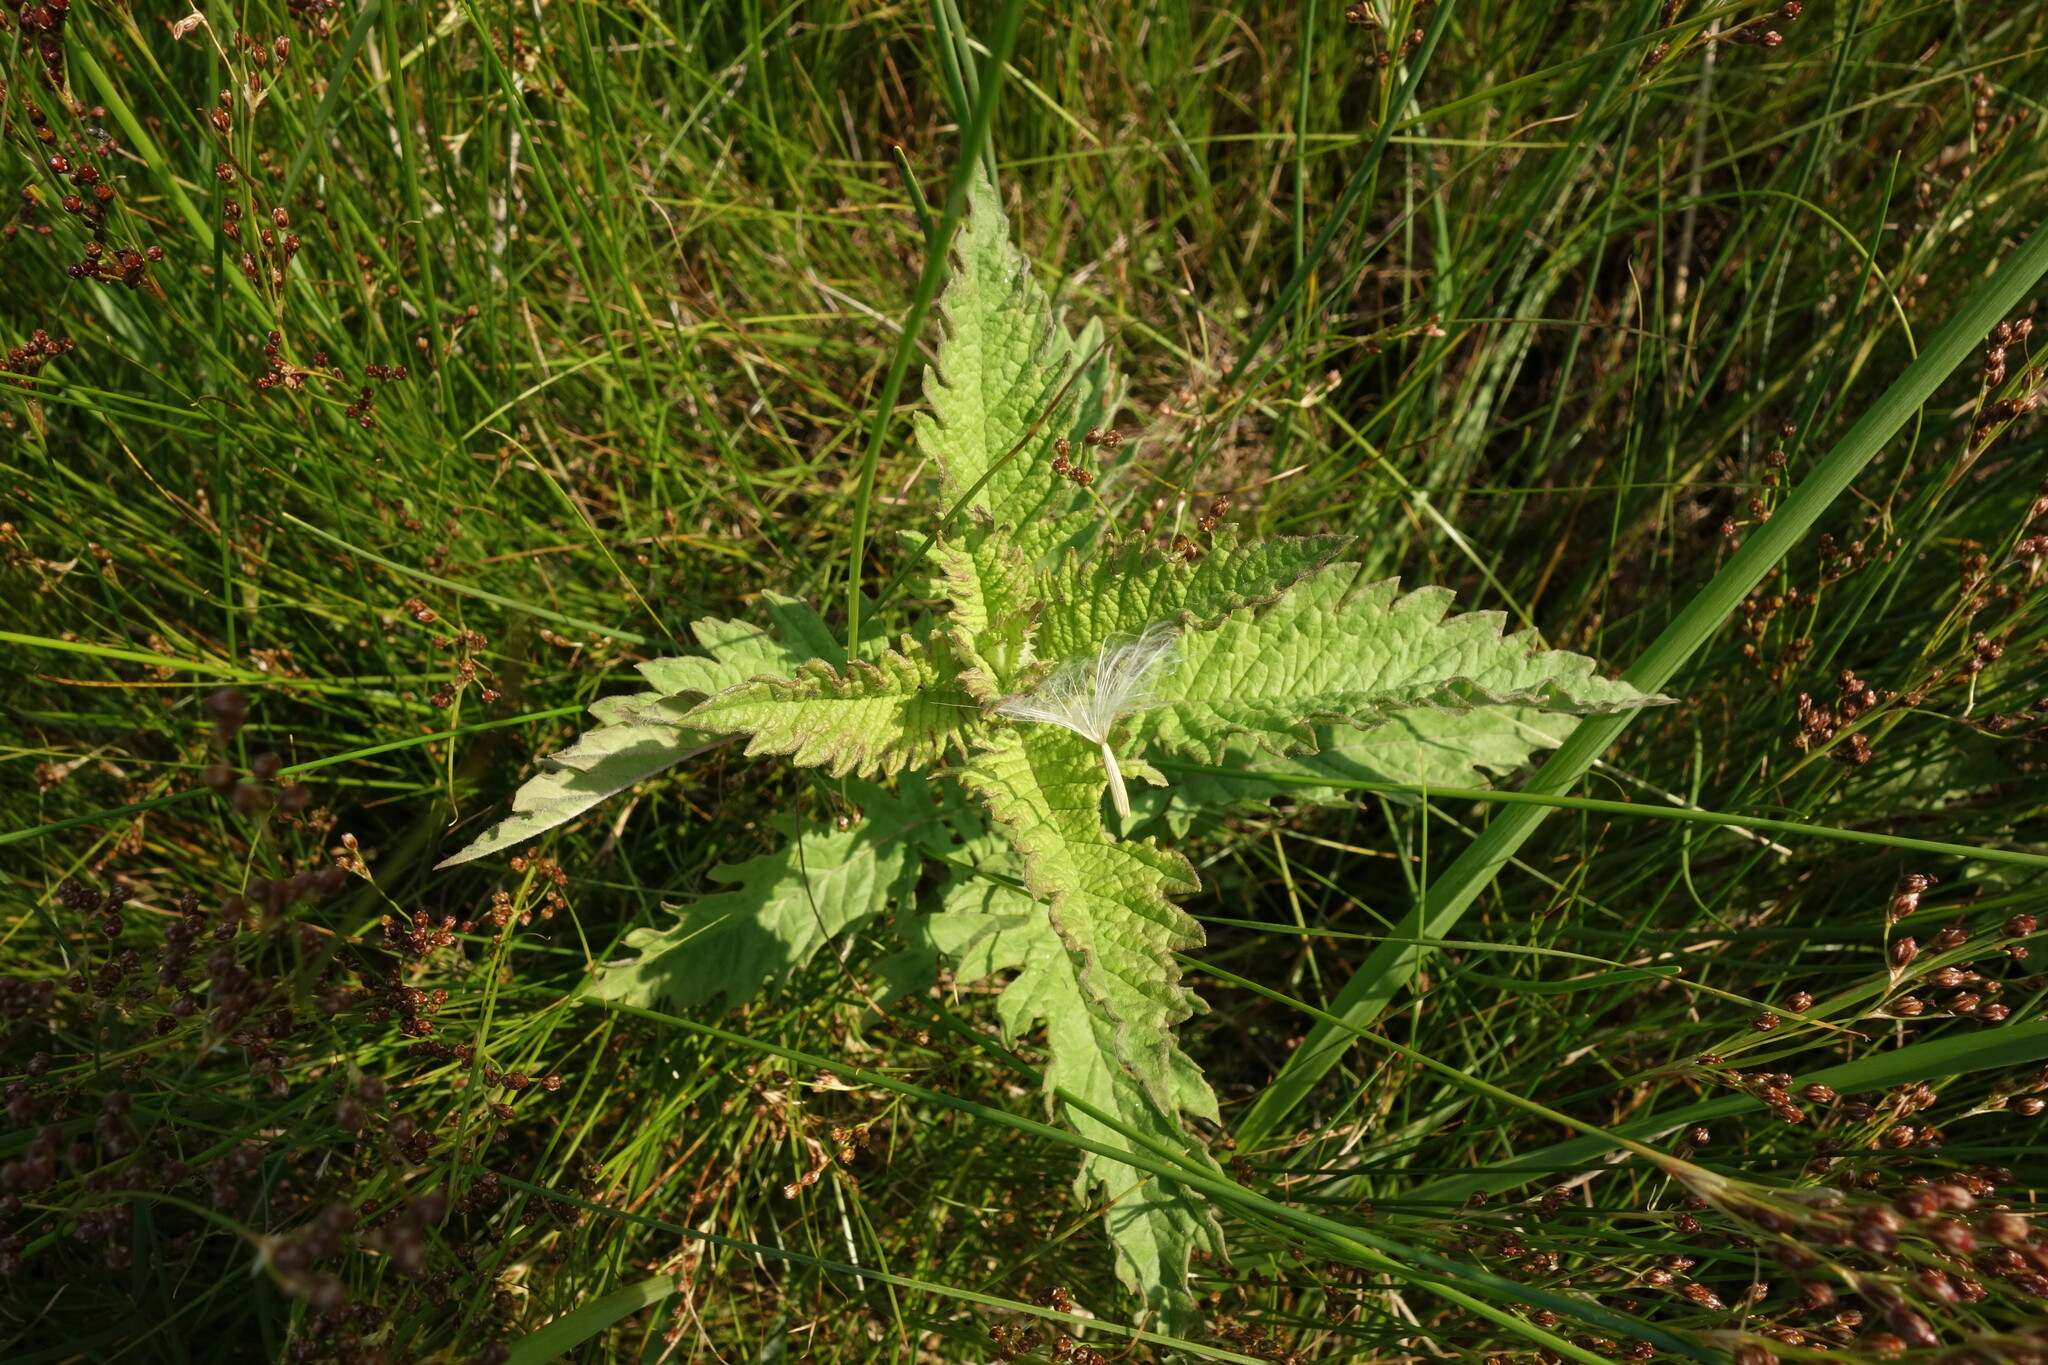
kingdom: Plantae
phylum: Tracheophyta
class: Magnoliopsida
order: Lamiales
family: Lamiaceae
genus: Lycopus
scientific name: Lycopus europaeus
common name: European bugleweed
